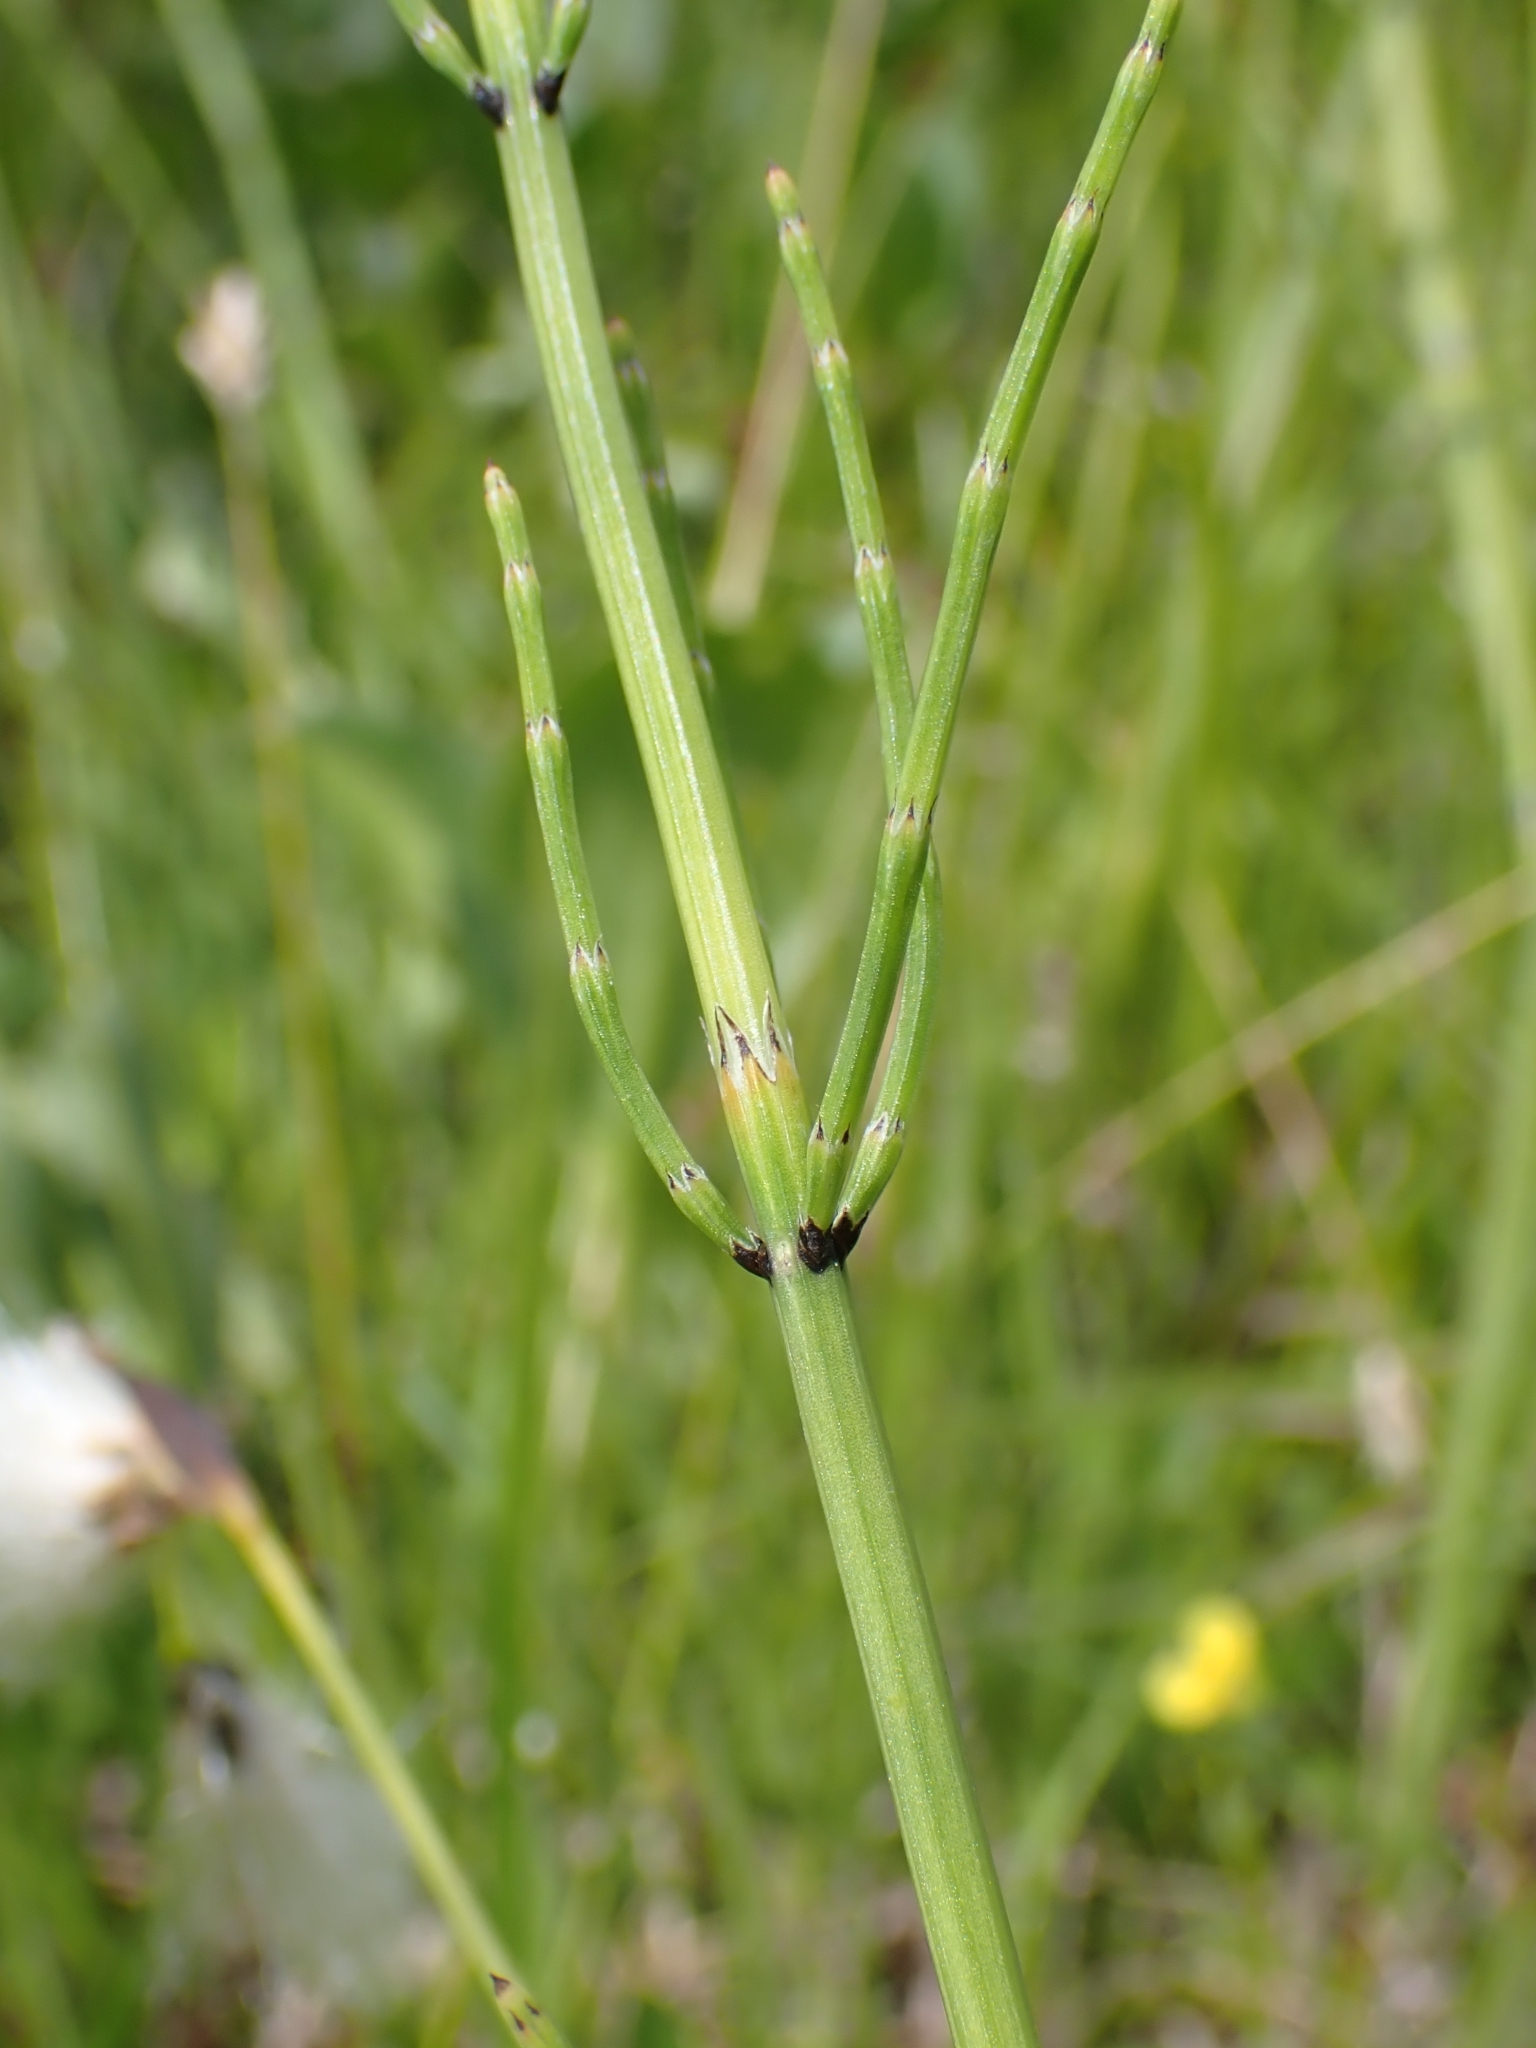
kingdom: Plantae
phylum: Tracheophyta
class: Polypodiopsida
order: Equisetales
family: Equisetaceae
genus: Equisetum
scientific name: Equisetum palustre
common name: Marsh horsetail
